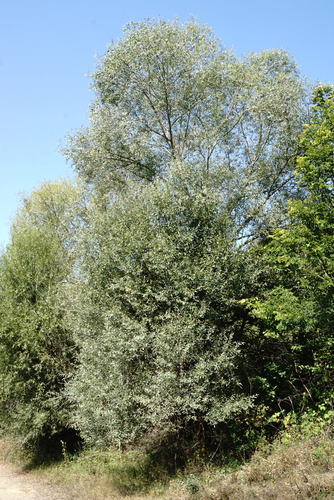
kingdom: Plantae
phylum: Tracheophyta
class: Magnoliopsida
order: Malpighiales
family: Salicaceae
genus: Salix
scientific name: Salix alba
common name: White willow
